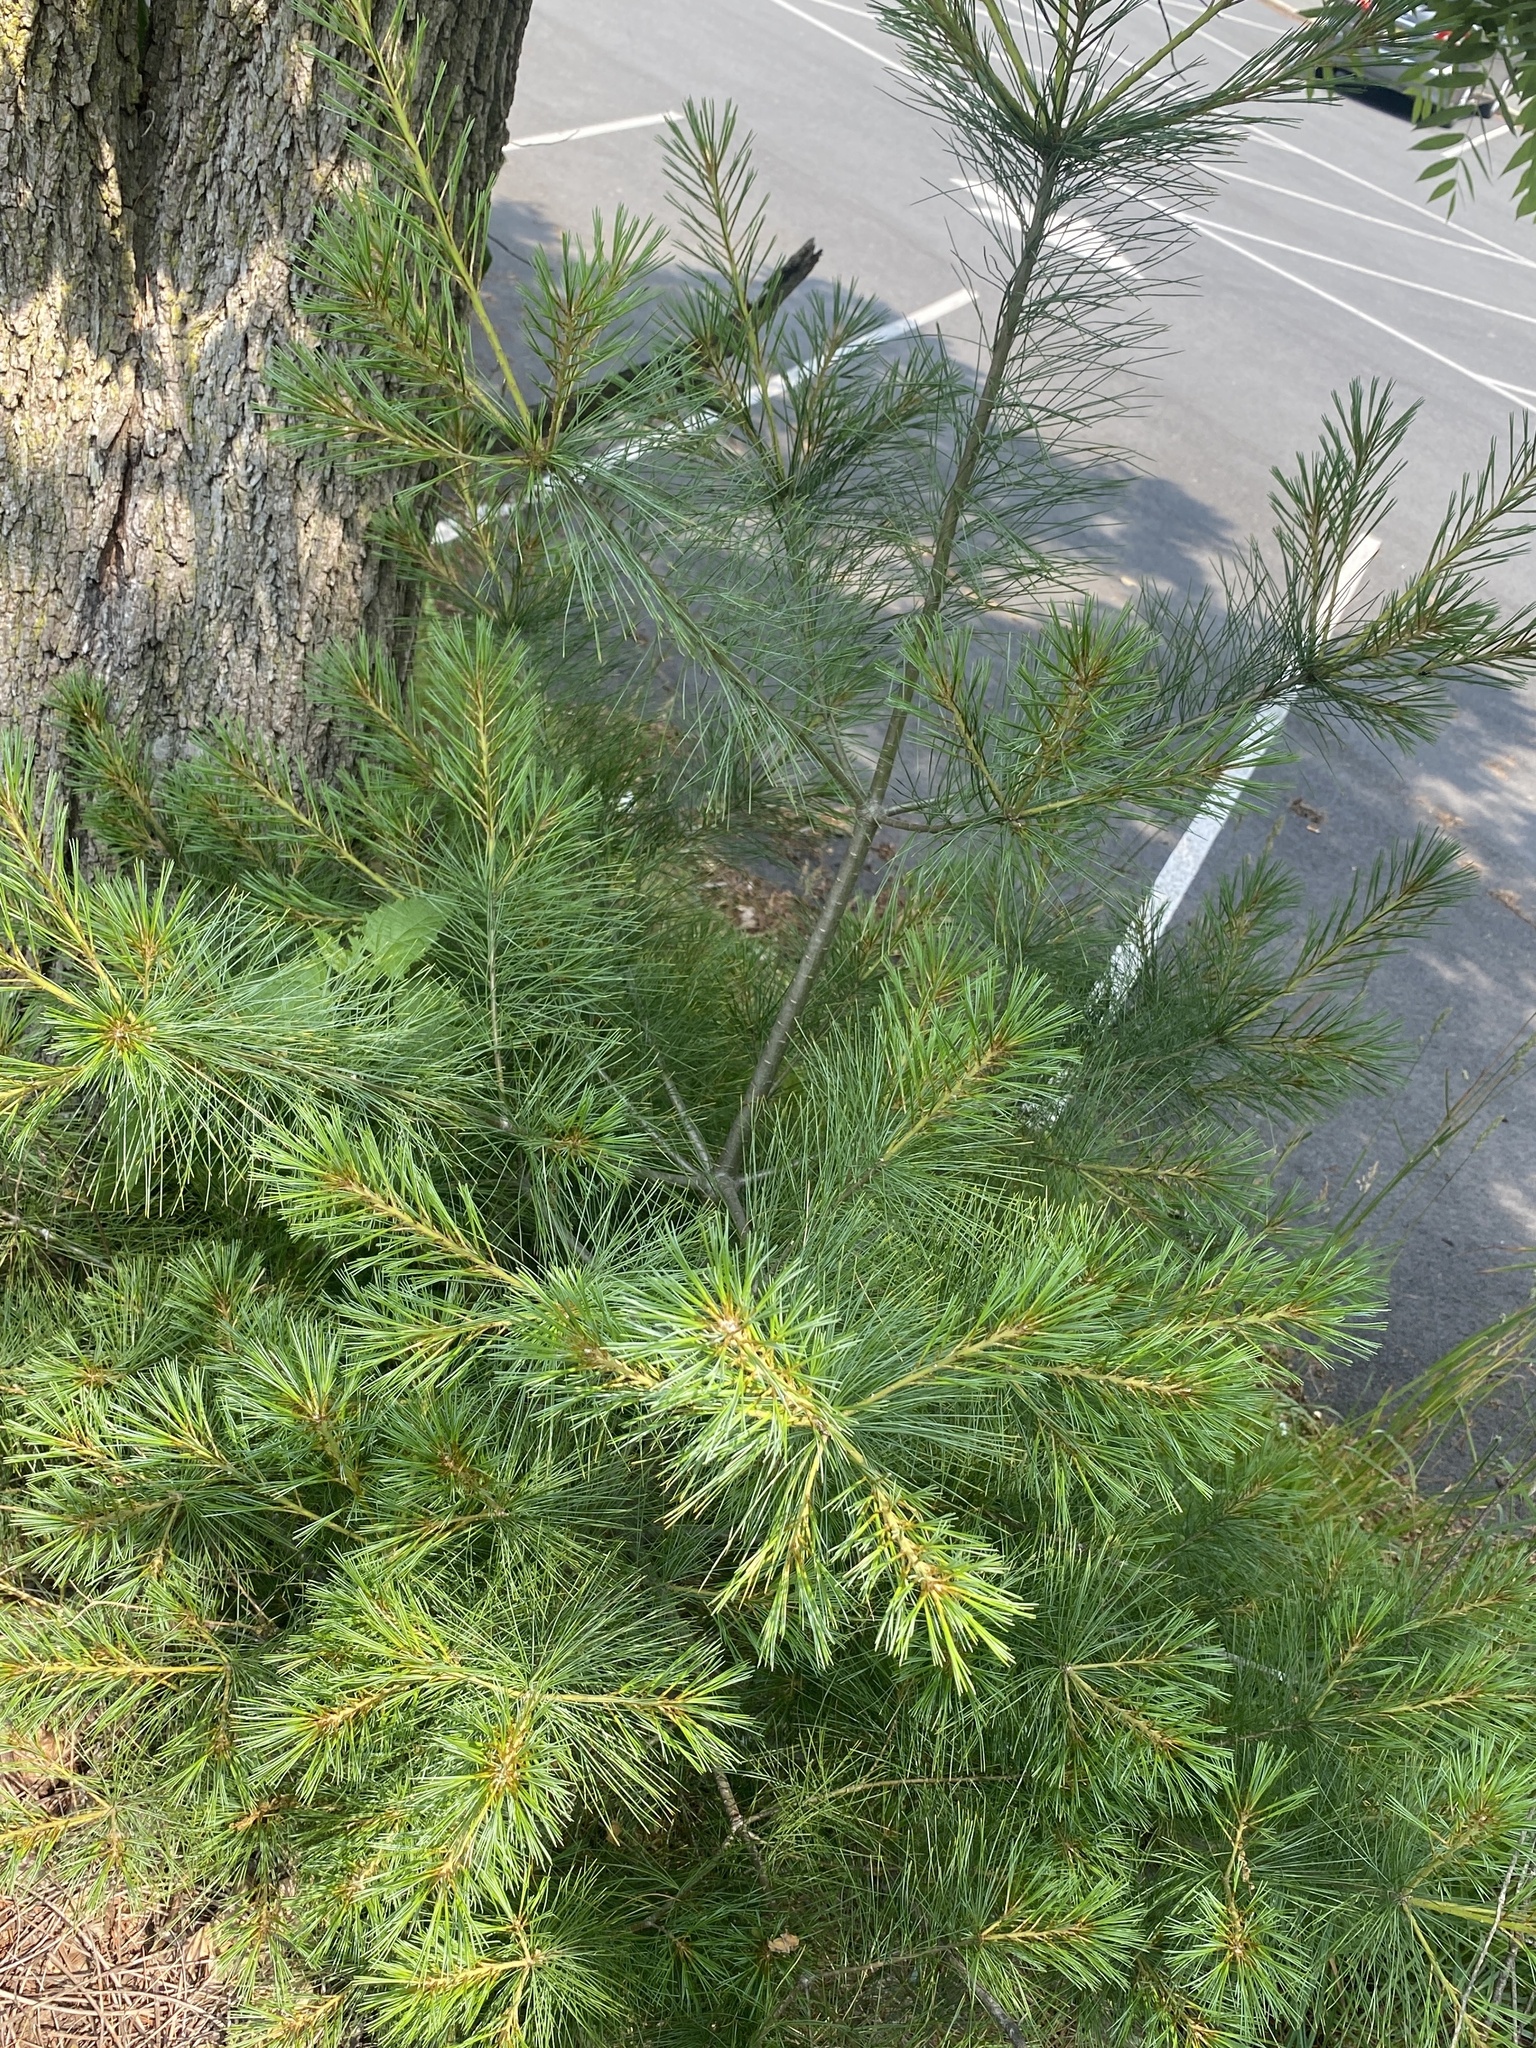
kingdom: Plantae
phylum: Tracheophyta
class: Pinopsida
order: Pinales
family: Pinaceae
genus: Pinus
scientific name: Pinus strobus
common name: Weymouth pine
